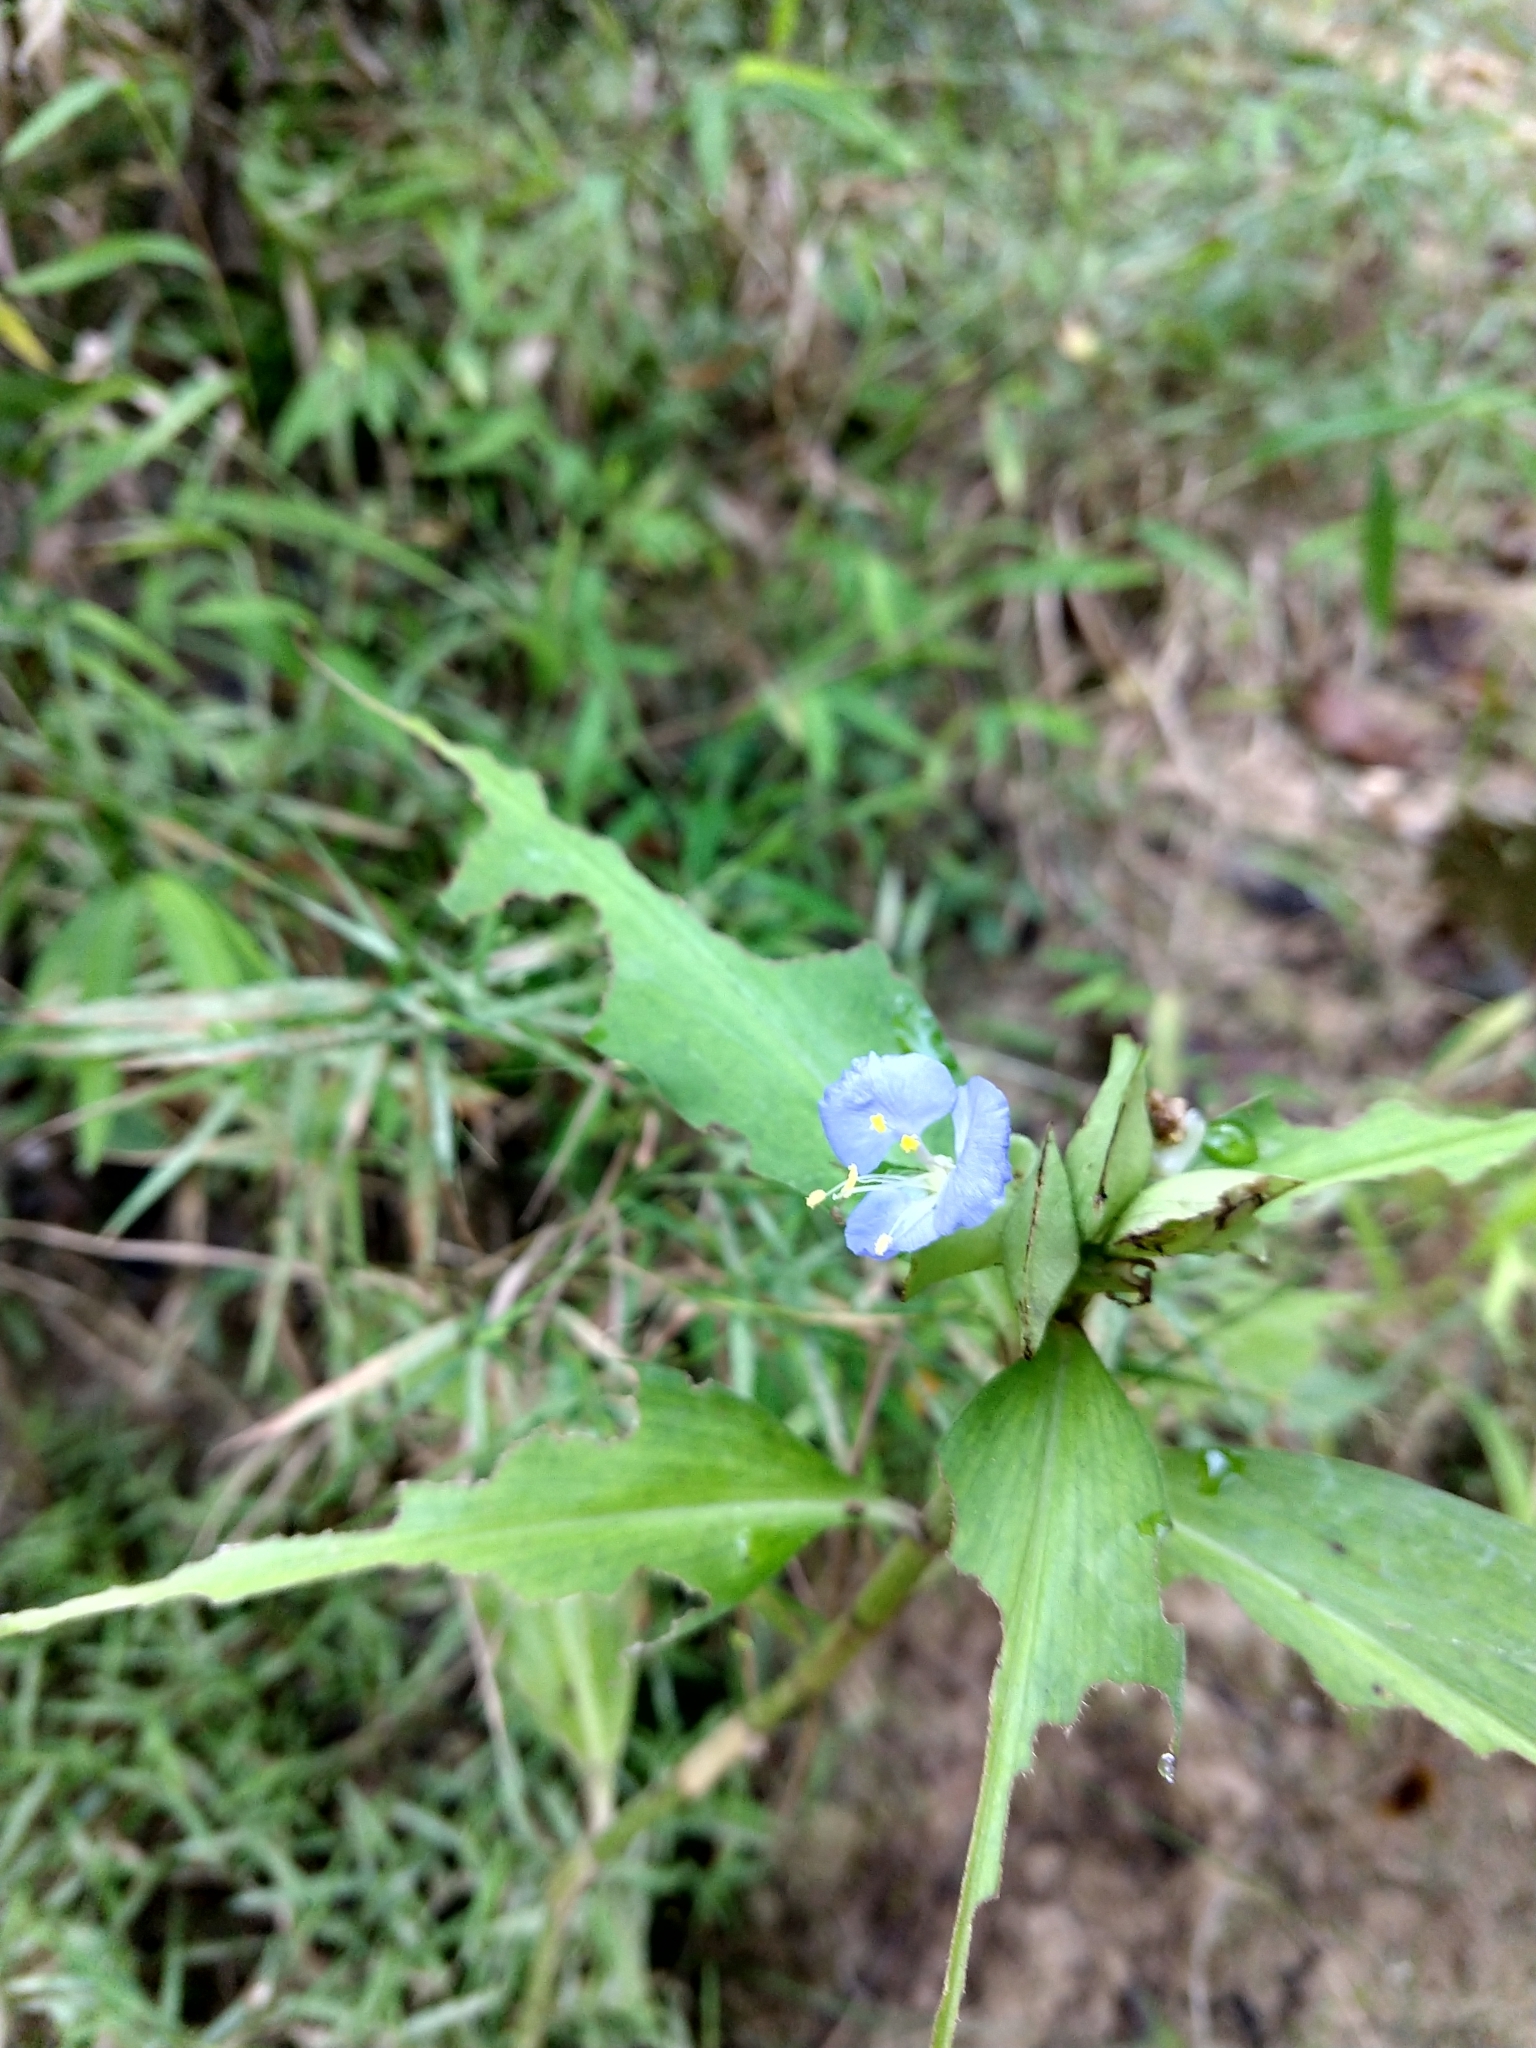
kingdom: Plantae
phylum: Tracheophyta
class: Liliopsida
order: Commelinales
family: Commelinaceae
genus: Commelina
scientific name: Commelina virginica
